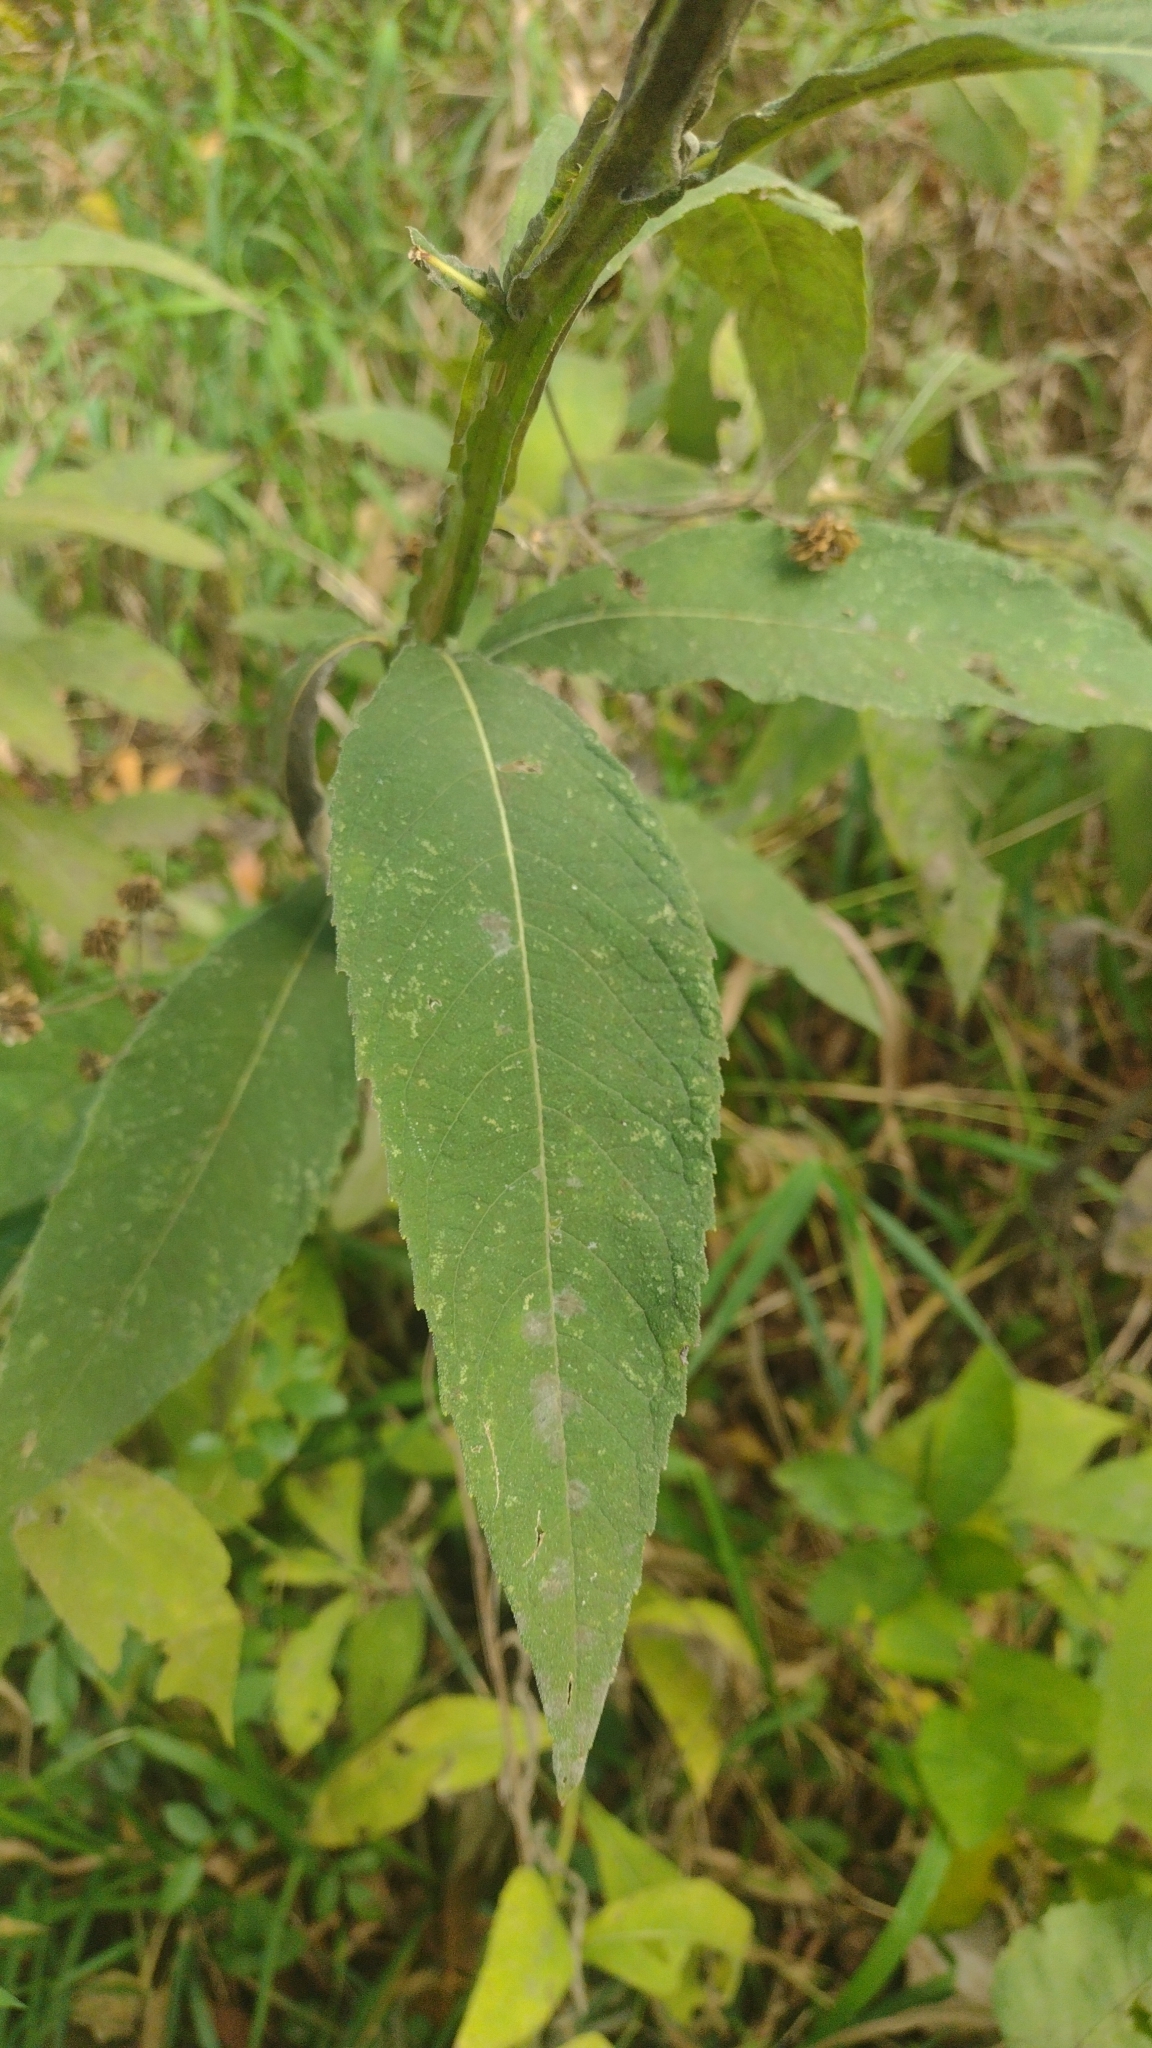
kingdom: Plantae
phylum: Tracheophyta
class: Magnoliopsida
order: Asterales
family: Asteraceae
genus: Verbesina
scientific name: Verbesina alternifolia
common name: Wingstem
